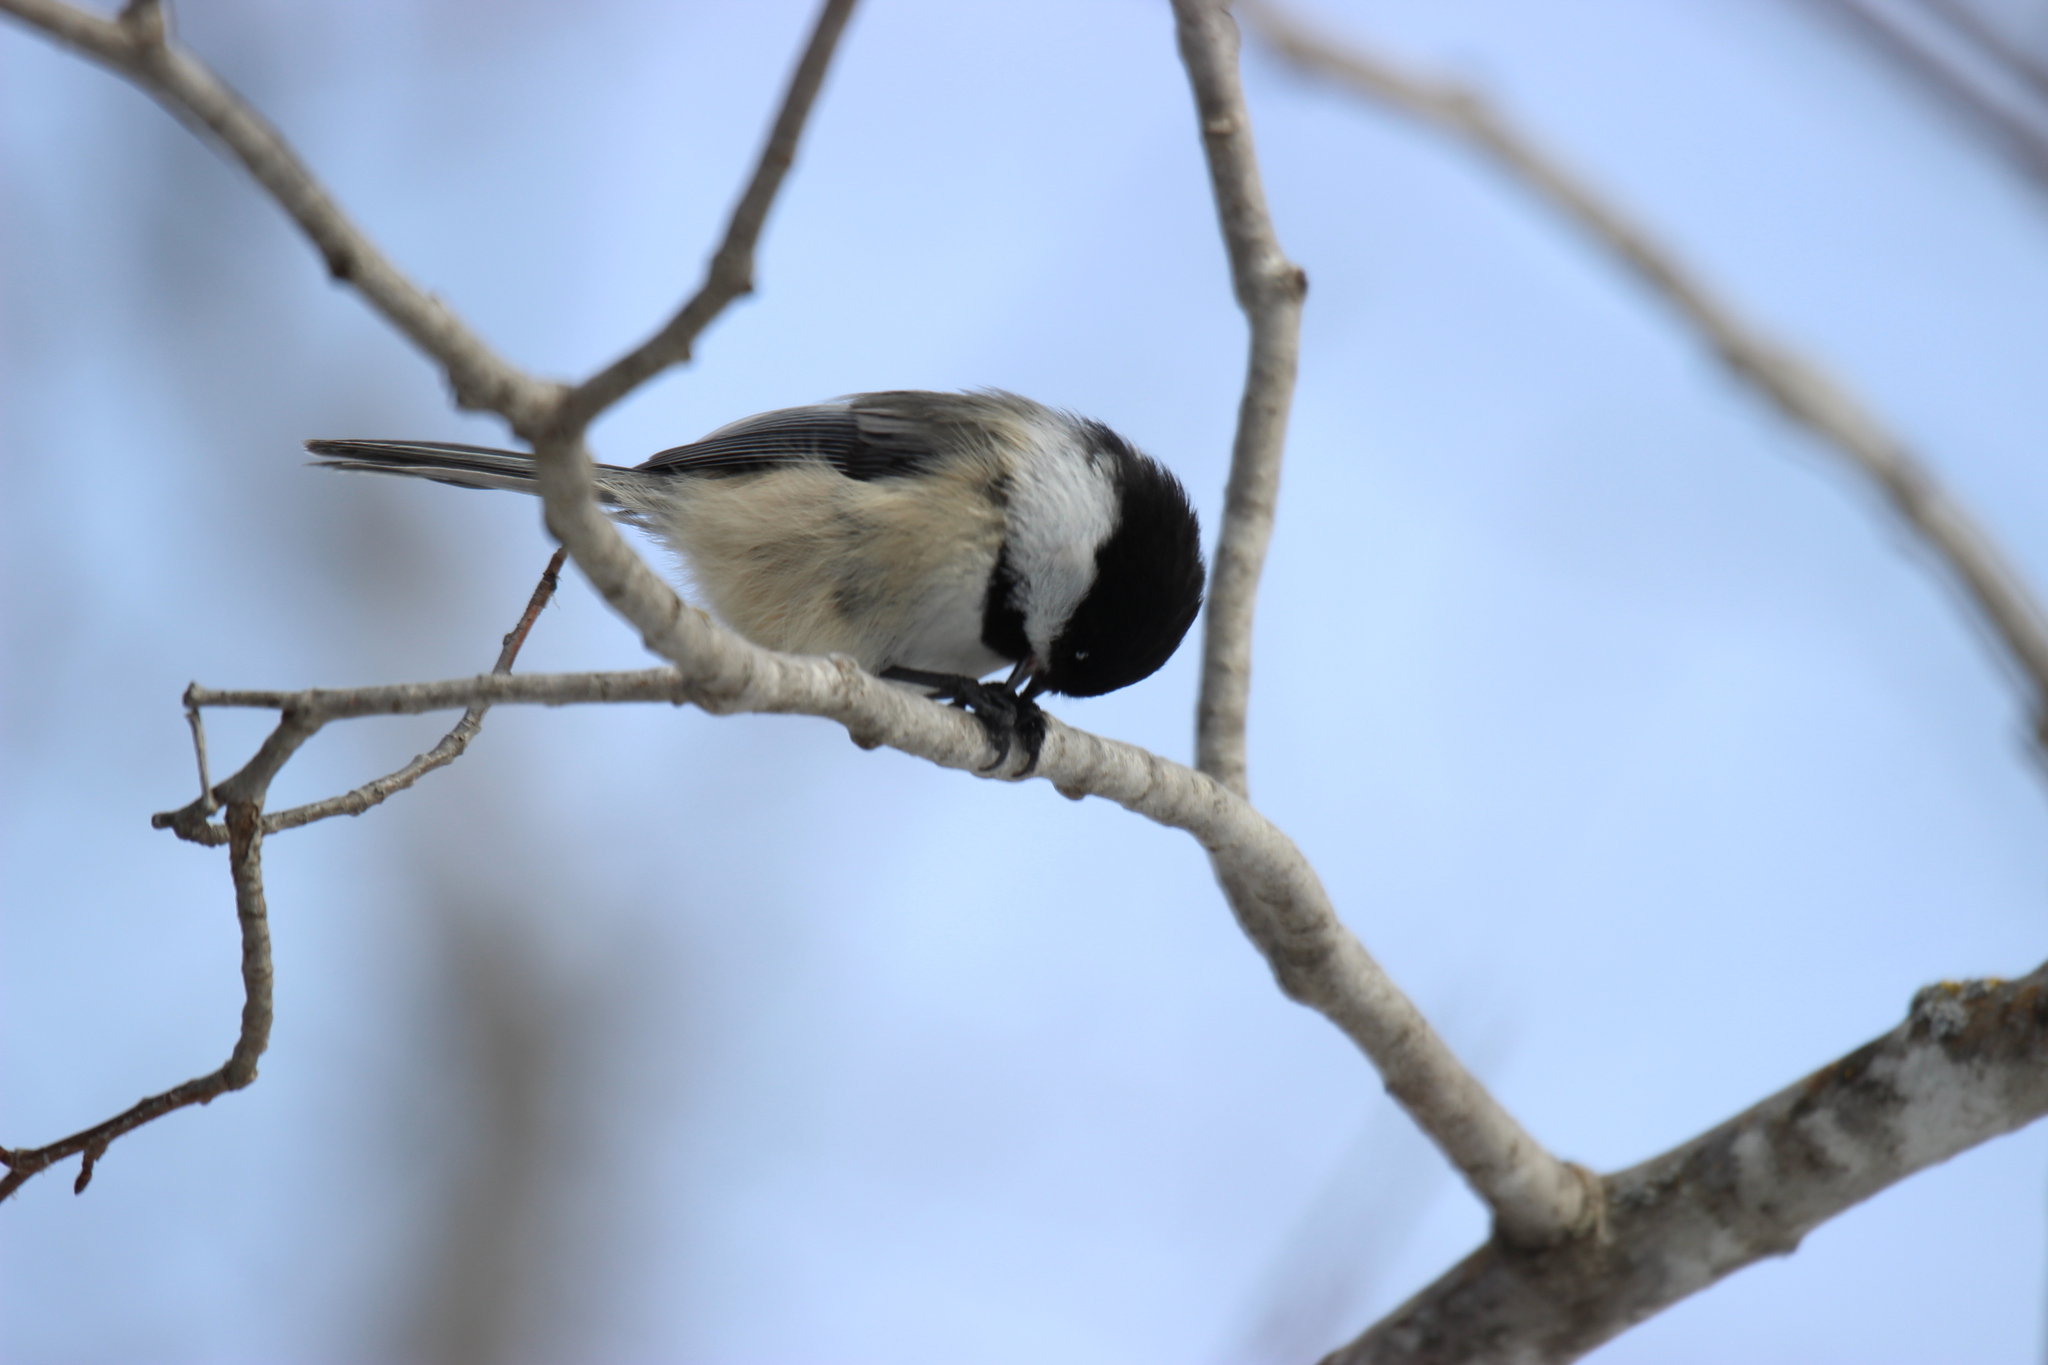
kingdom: Animalia
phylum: Chordata
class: Aves
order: Passeriformes
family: Paridae
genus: Poecile
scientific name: Poecile atricapillus
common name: Black-capped chickadee
